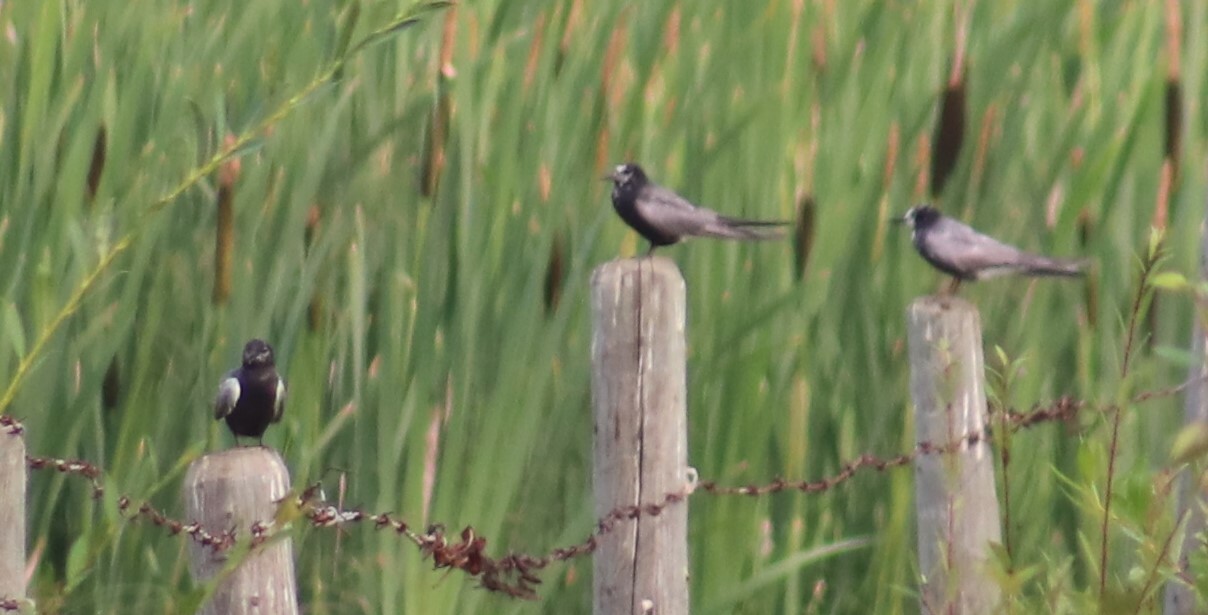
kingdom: Animalia
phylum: Chordata
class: Aves
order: Charadriiformes
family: Laridae
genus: Chlidonias
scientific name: Chlidonias niger
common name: Black tern
